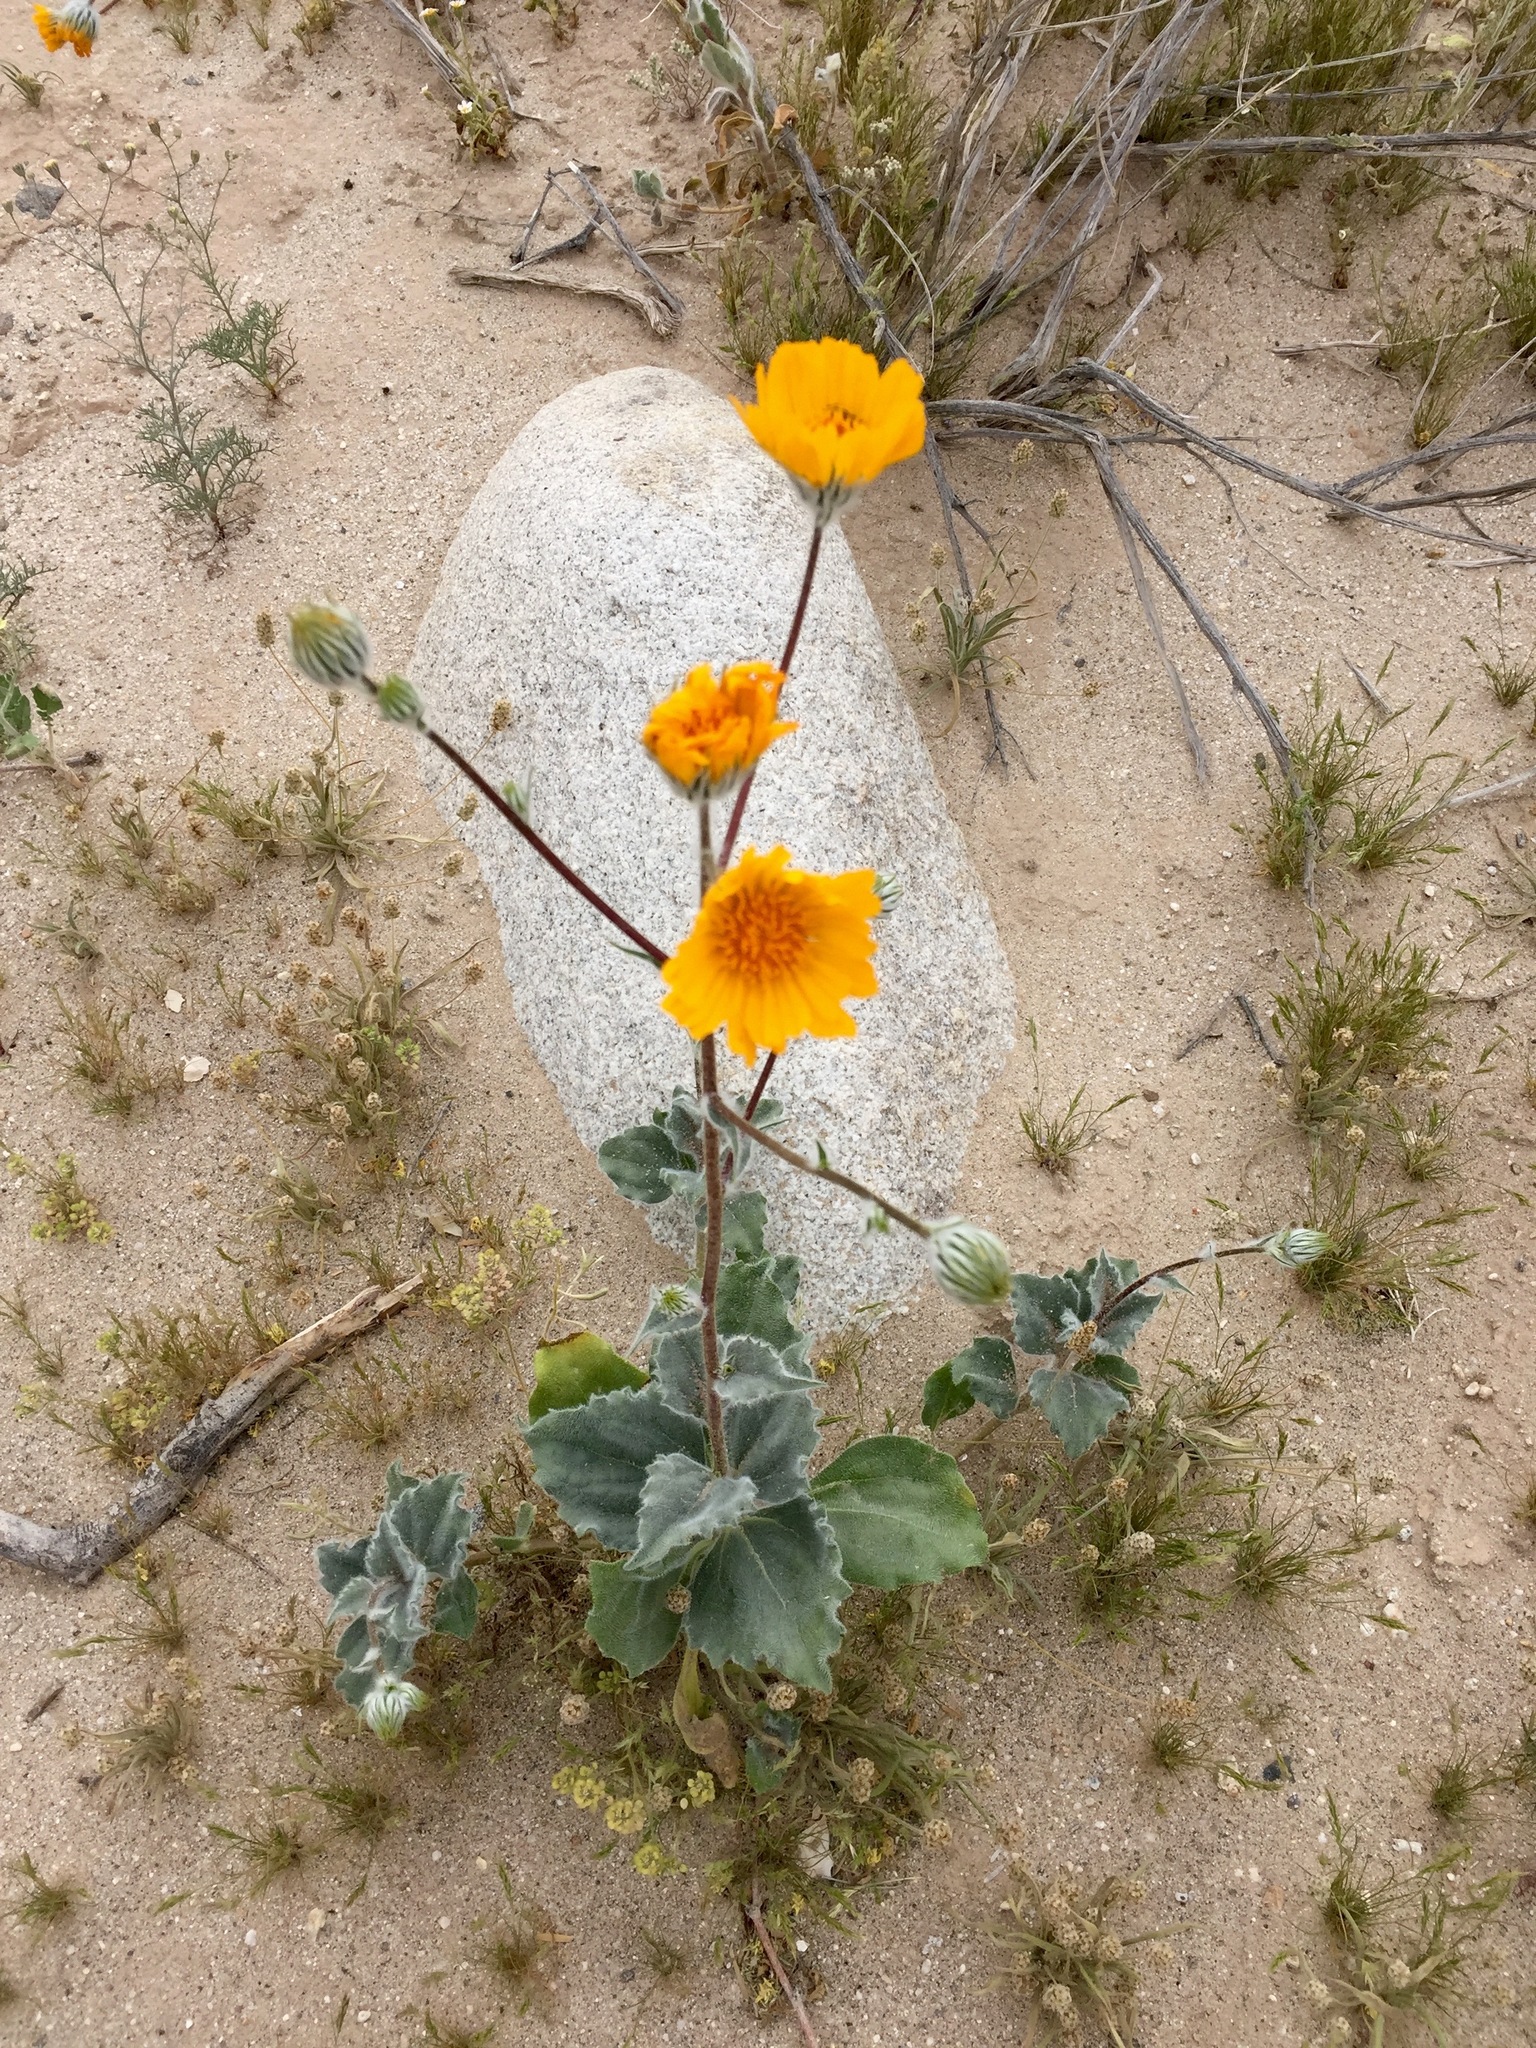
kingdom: Plantae
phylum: Tracheophyta
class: Magnoliopsida
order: Asterales
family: Asteraceae
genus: Geraea
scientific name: Geraea canescens
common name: Desert-gold
